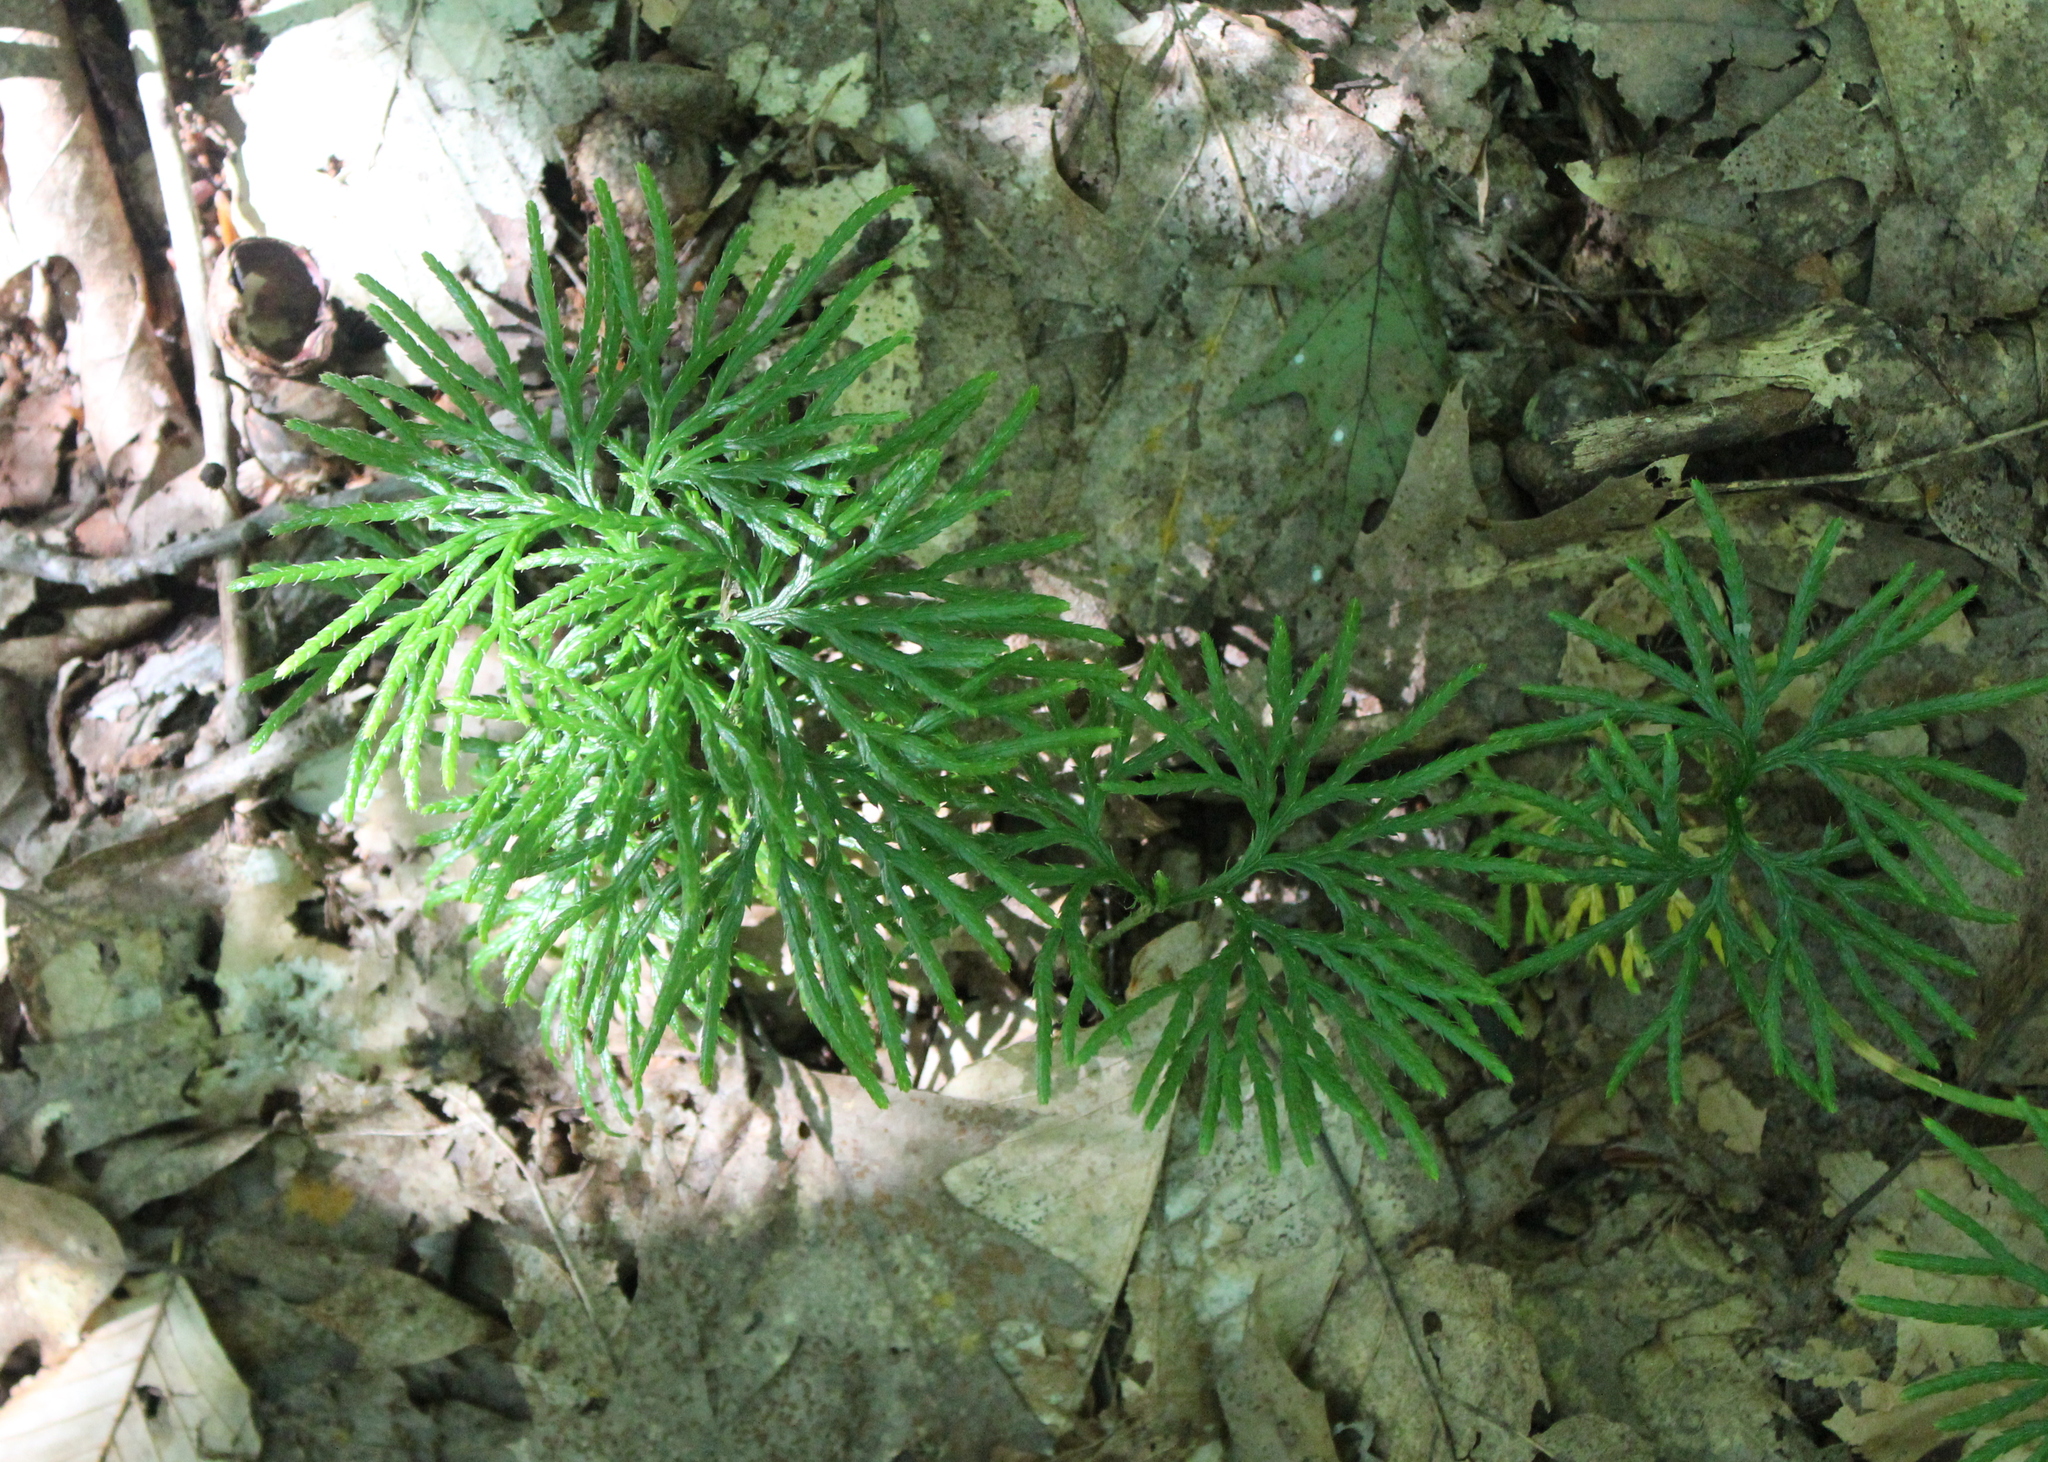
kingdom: Plantae
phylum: Tracheophyta
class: Lycopodiopsida
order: Lycopodiales
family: Lycopodiaceae
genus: Diphasiastrum
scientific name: Diphasiastrum digitatum
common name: Southern running-pine
